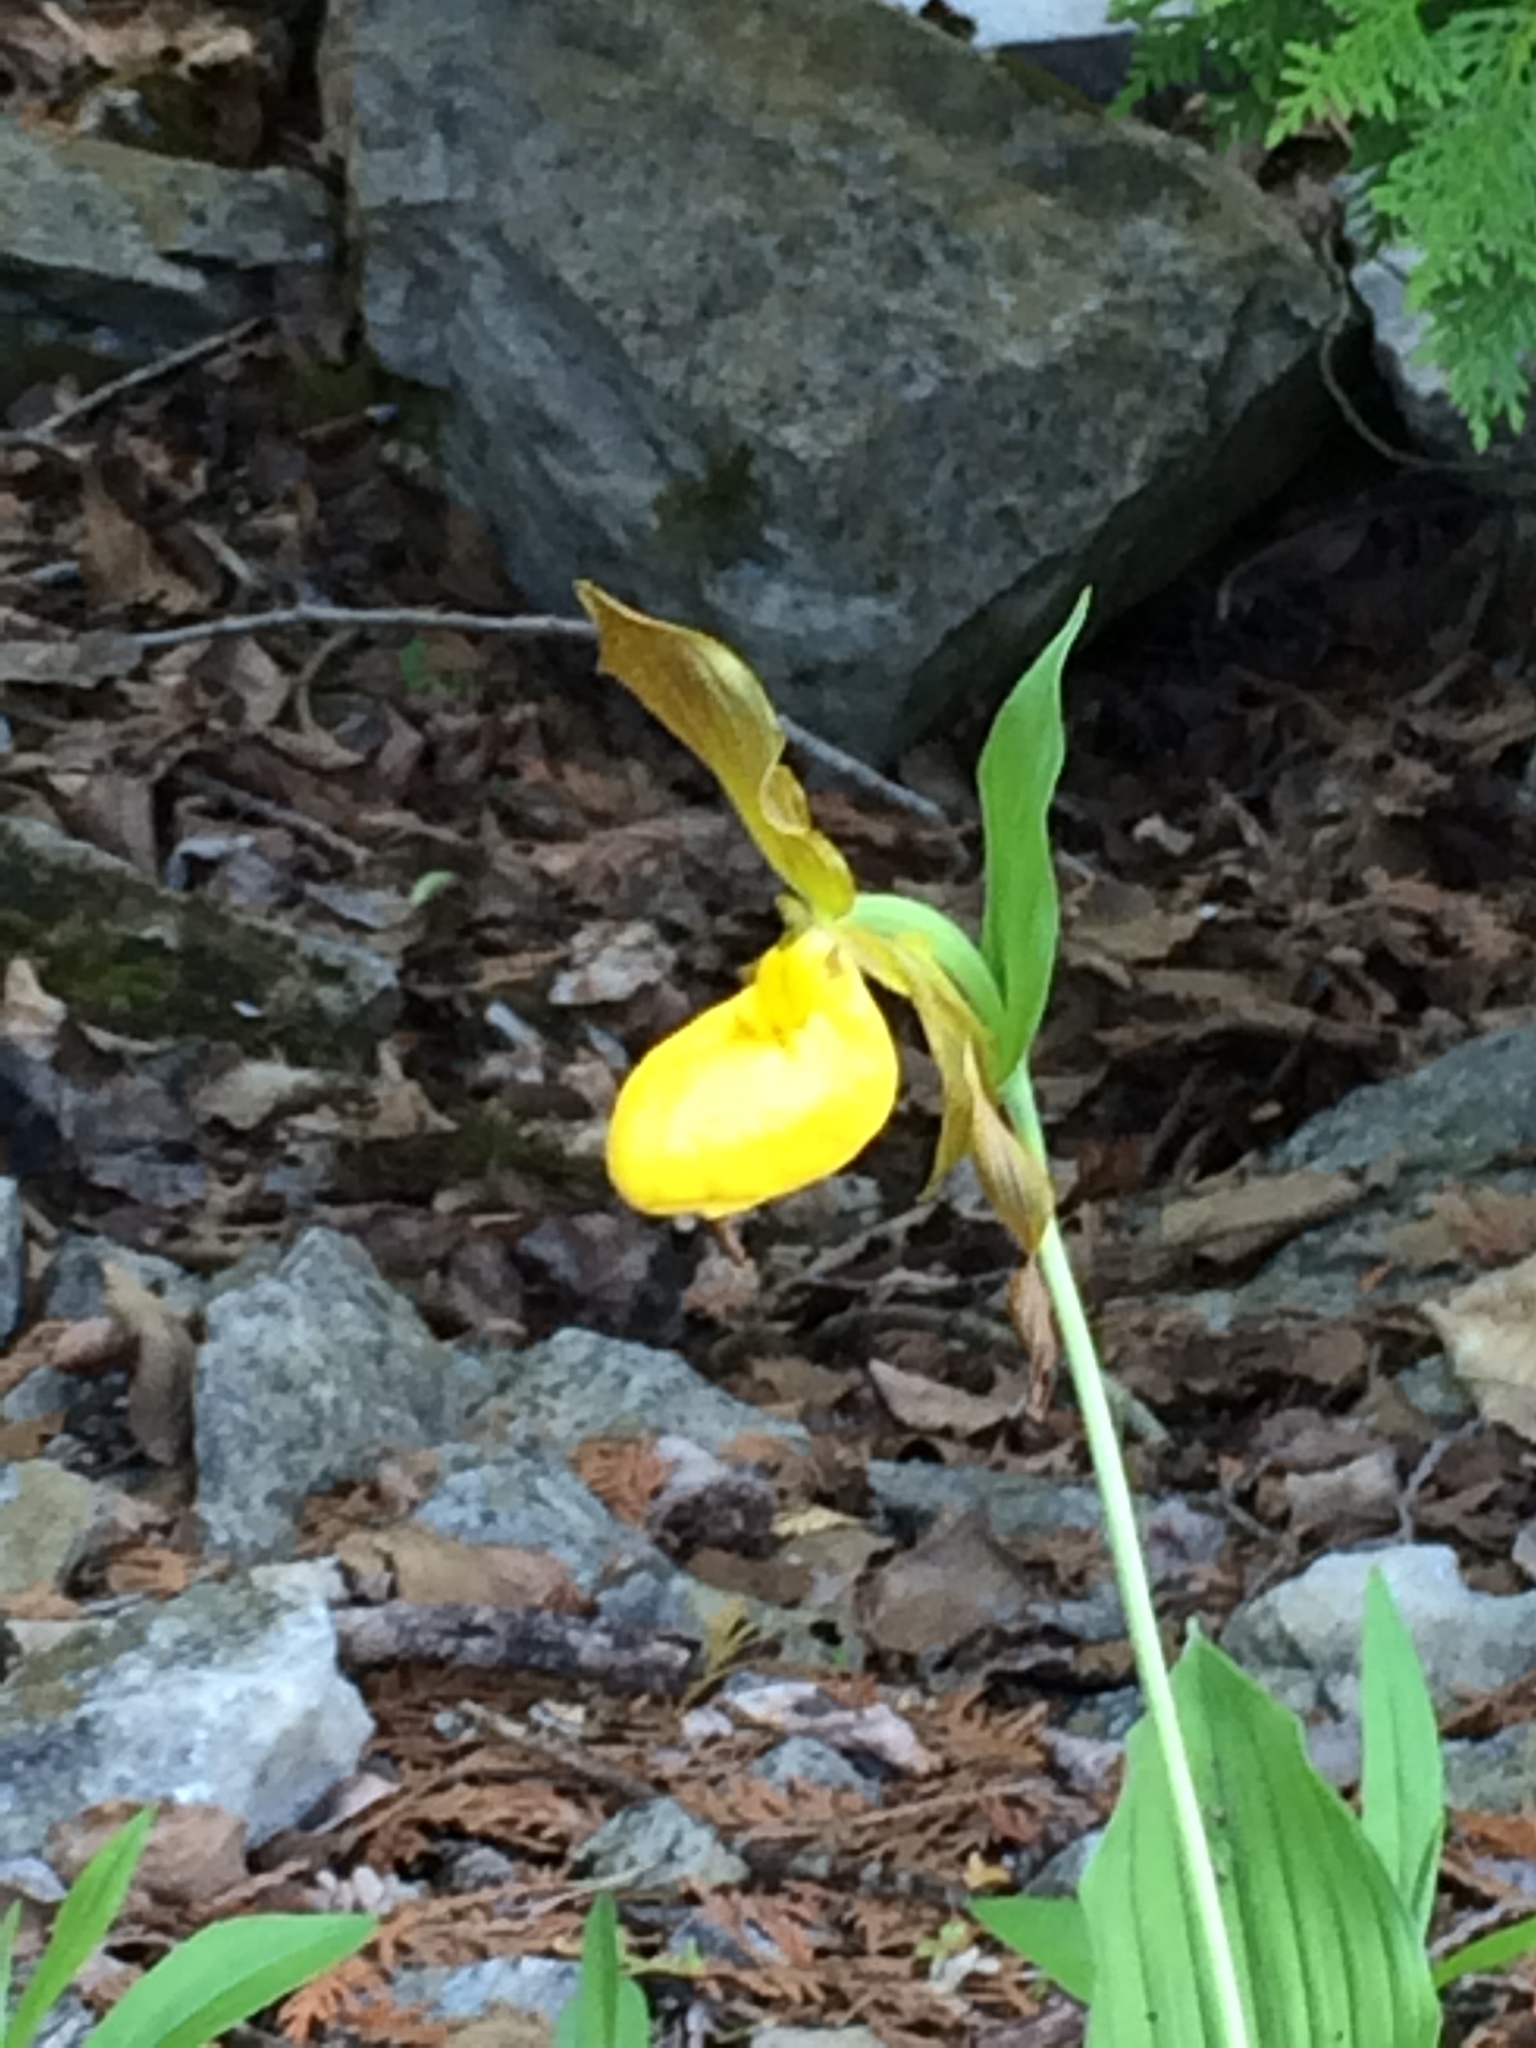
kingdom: Plantae
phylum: Tracheophyta
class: Liliopsida
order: Asparagales
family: Orchidaceae
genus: Cypripedium
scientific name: Cypripedium parviflorum
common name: American yellow lady's-slipper
